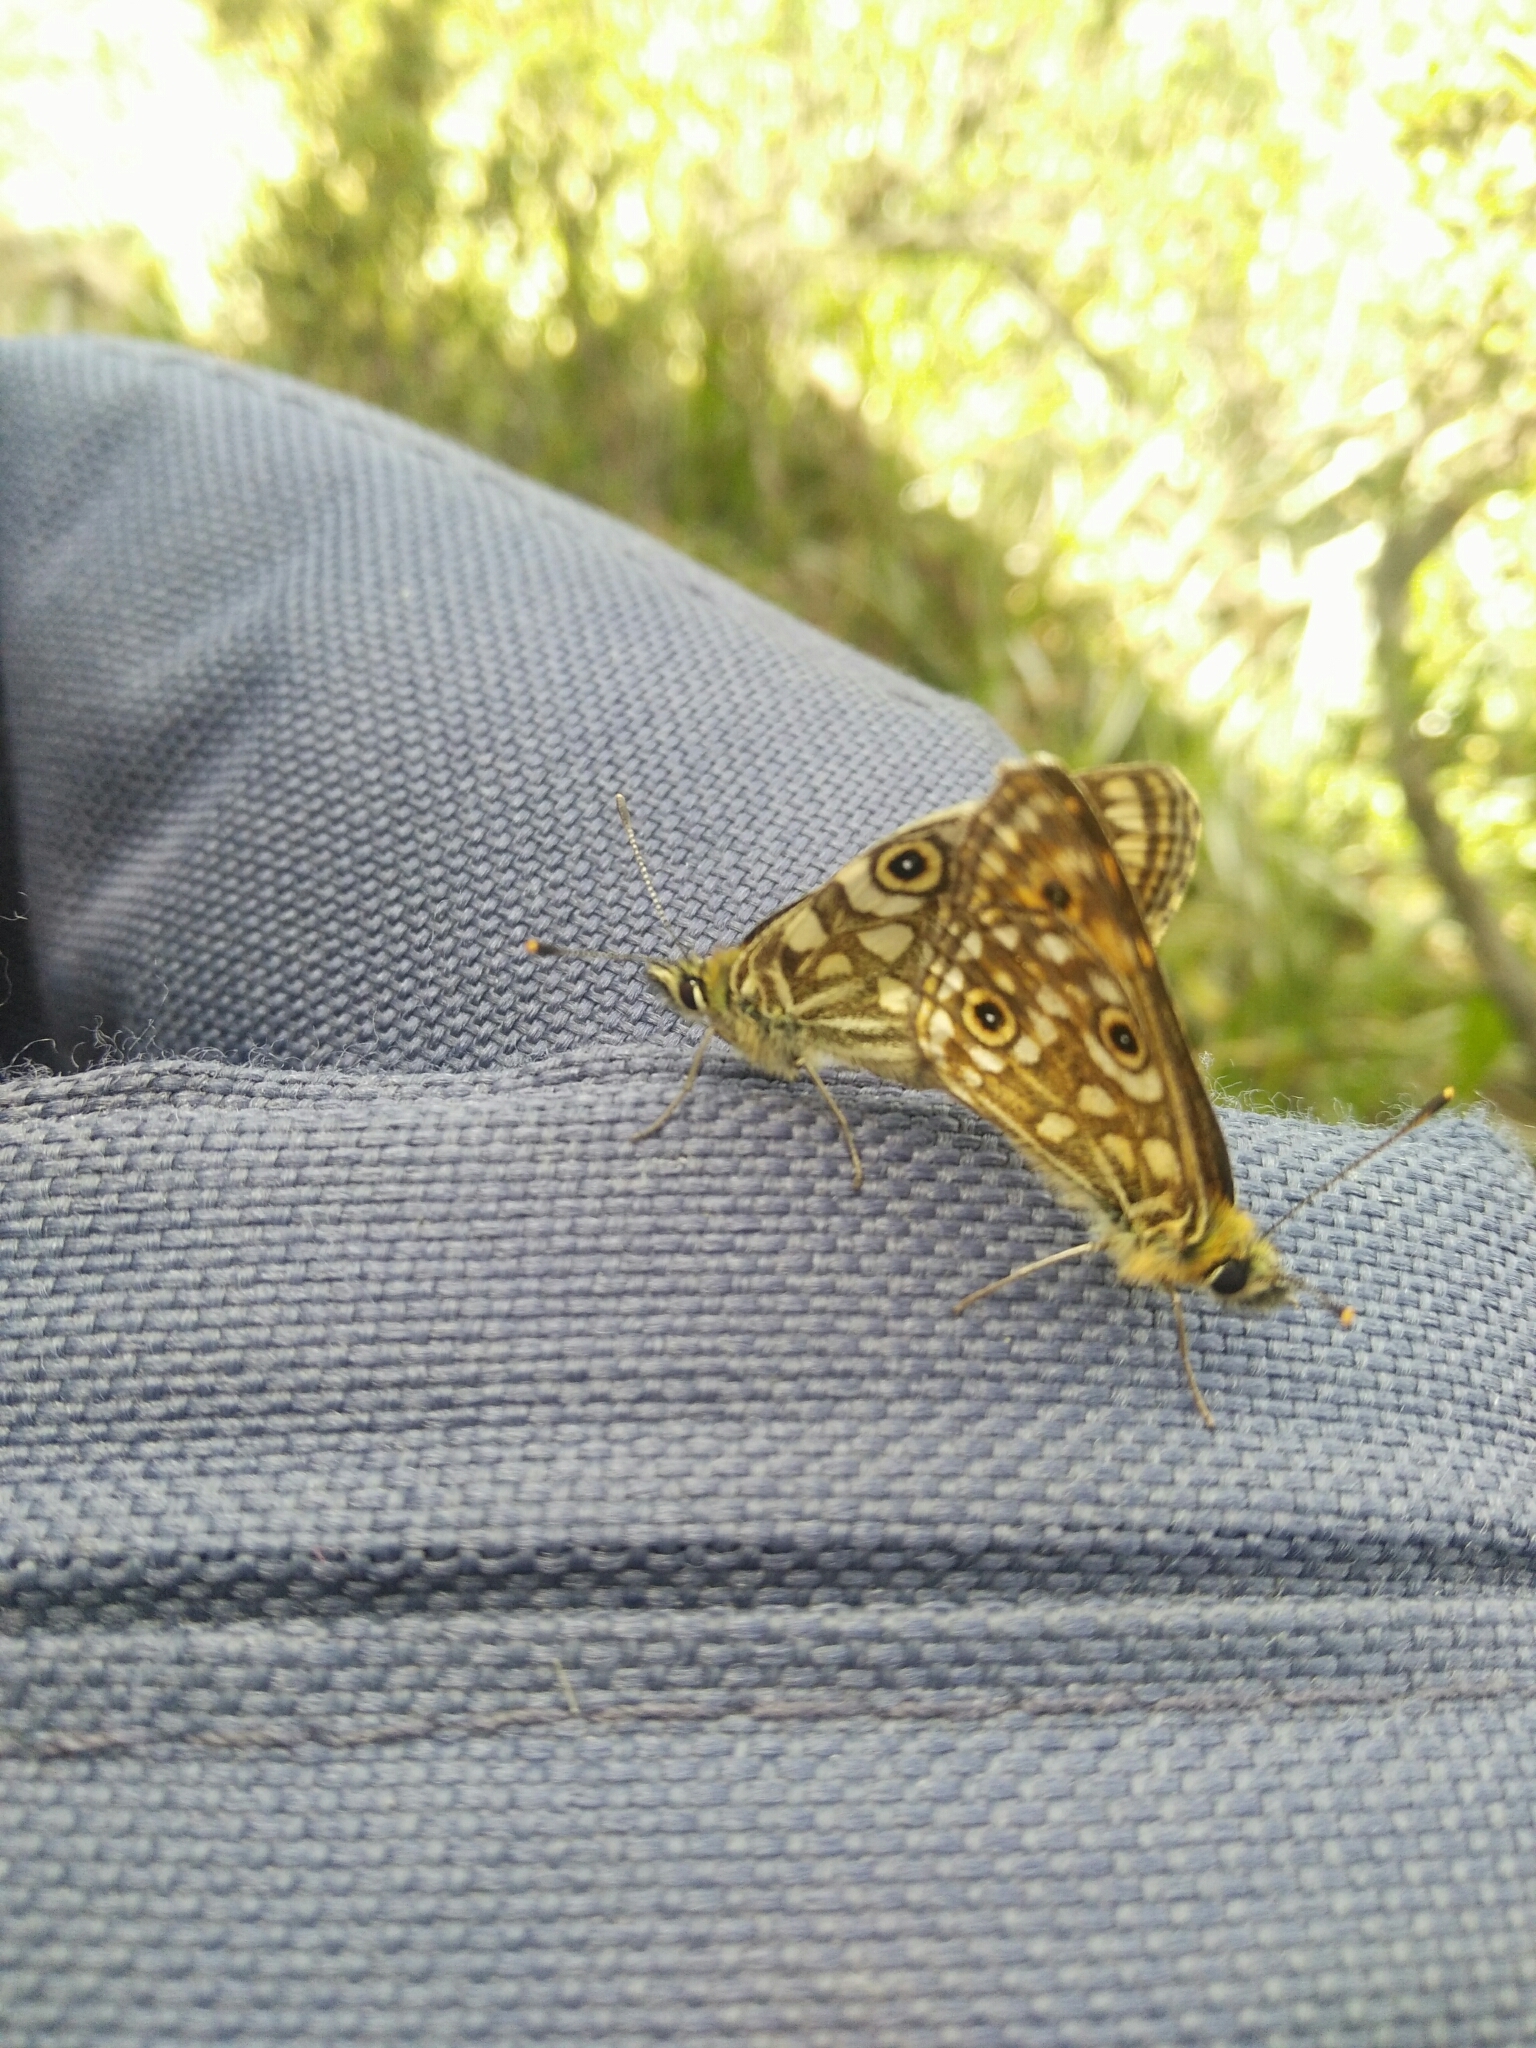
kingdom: Animalia
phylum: Arthropoda
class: Insecta
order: Lepidoptera
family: Nymphalidae
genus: Oreixenica
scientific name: Oreixenica orichora
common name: Orichora brown
